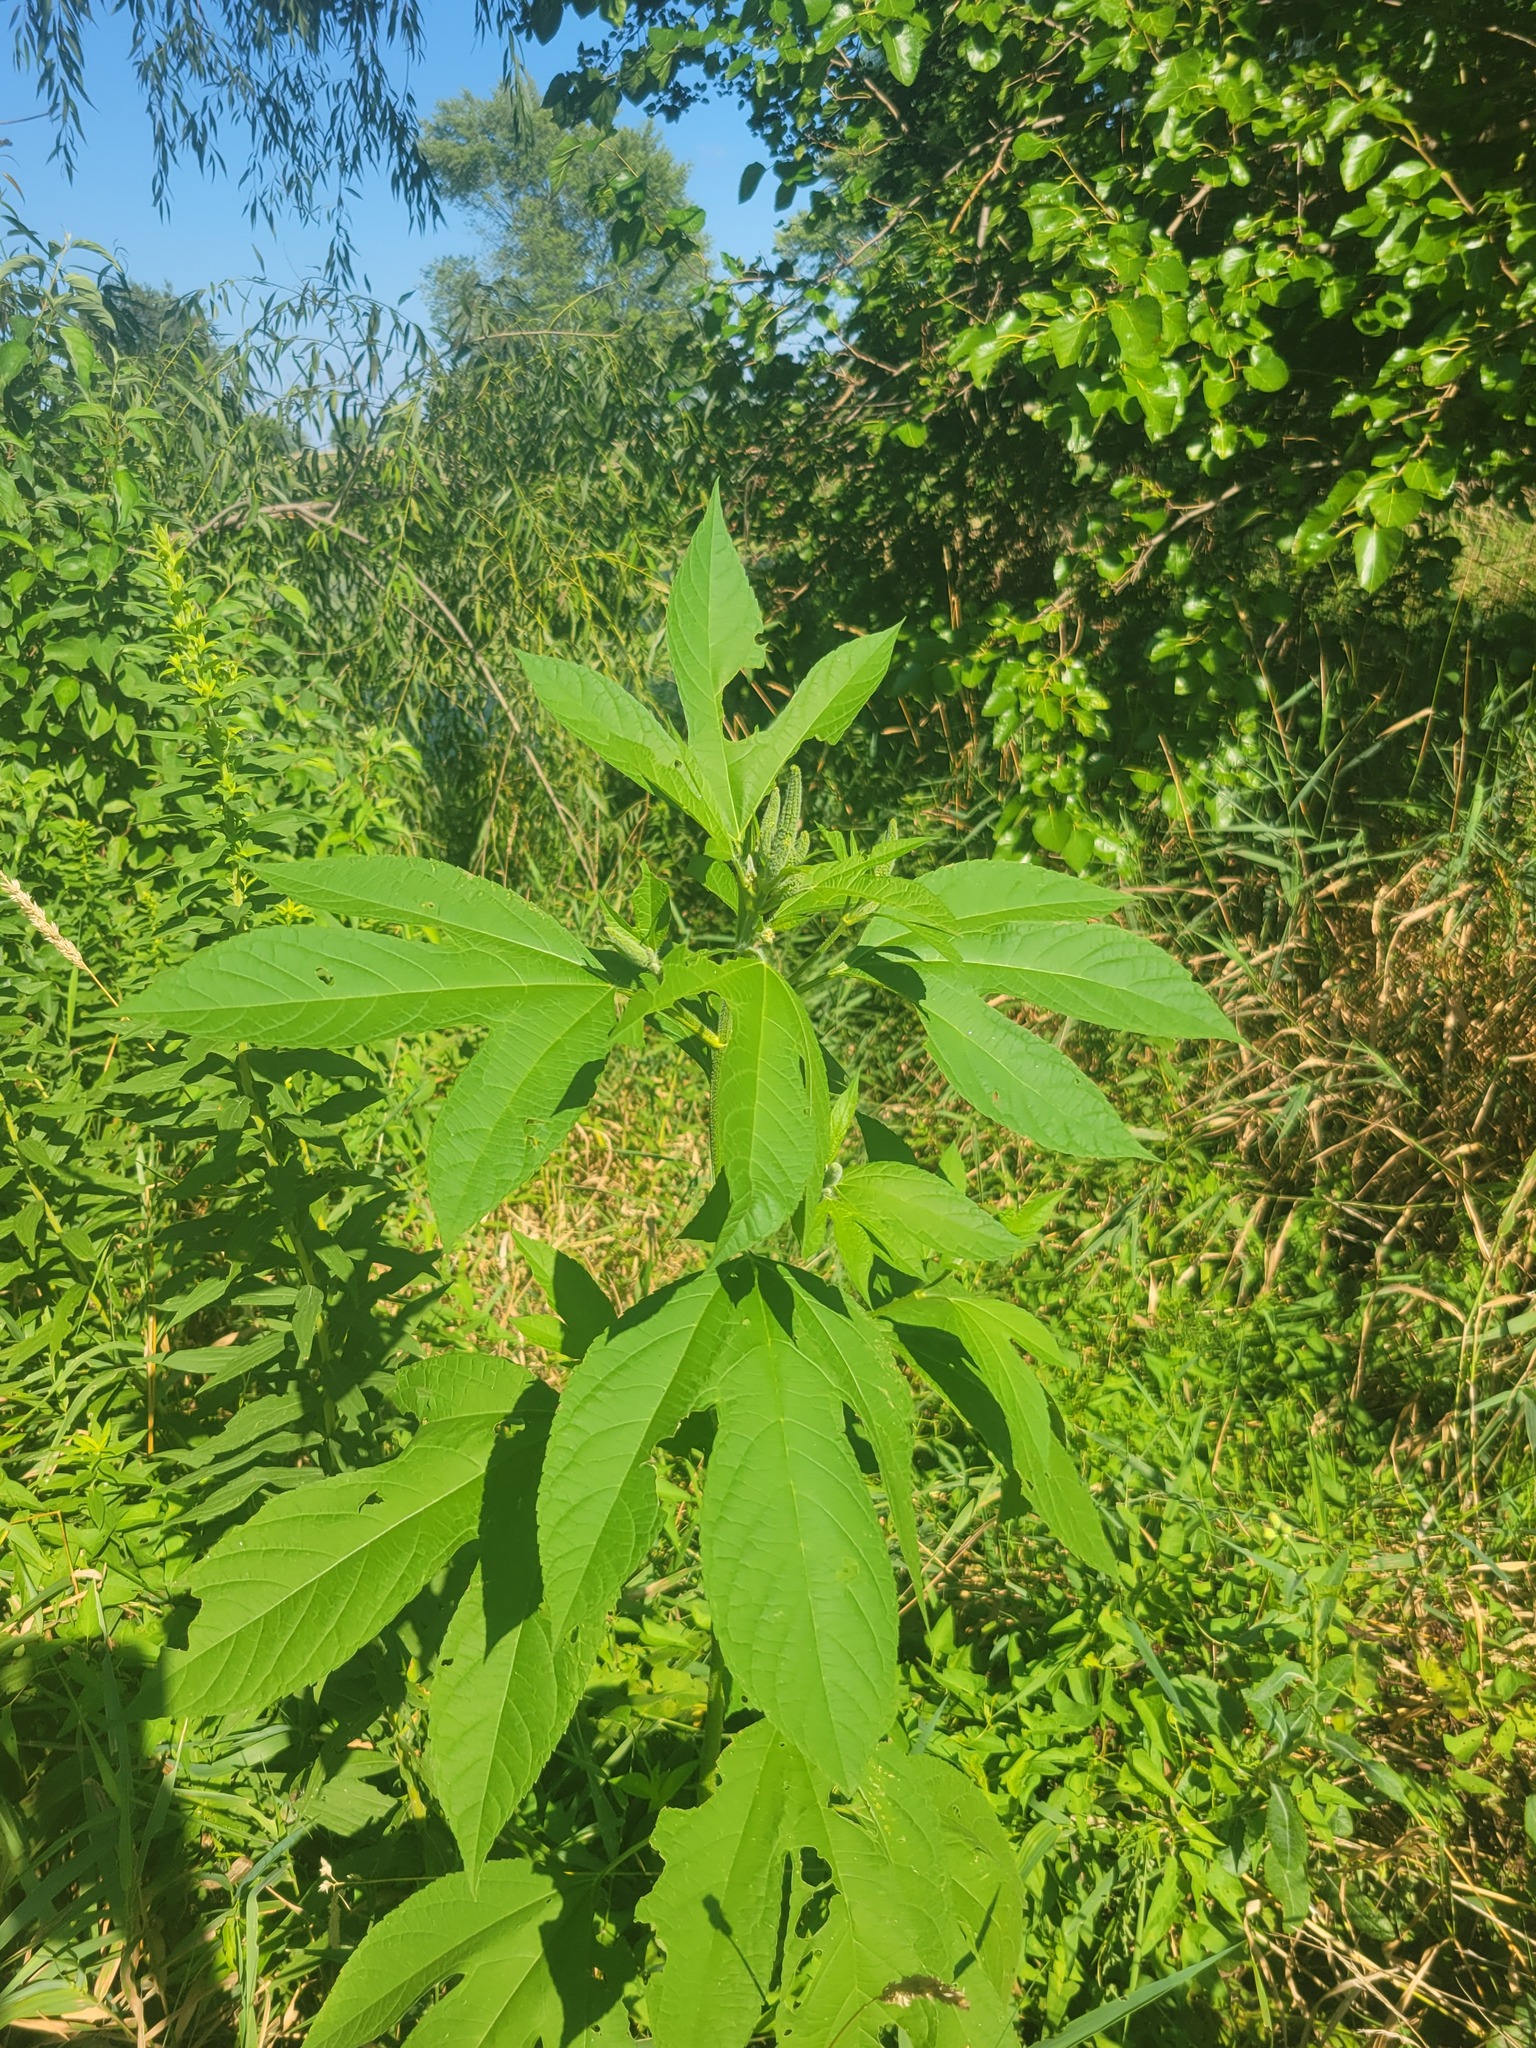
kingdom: Plantae
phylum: Tracheophyta
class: Magnoliopsida
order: Asterales
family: Asteraceae
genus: Ambrosia
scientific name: Ambrosia trifida
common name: Giant ragweed
